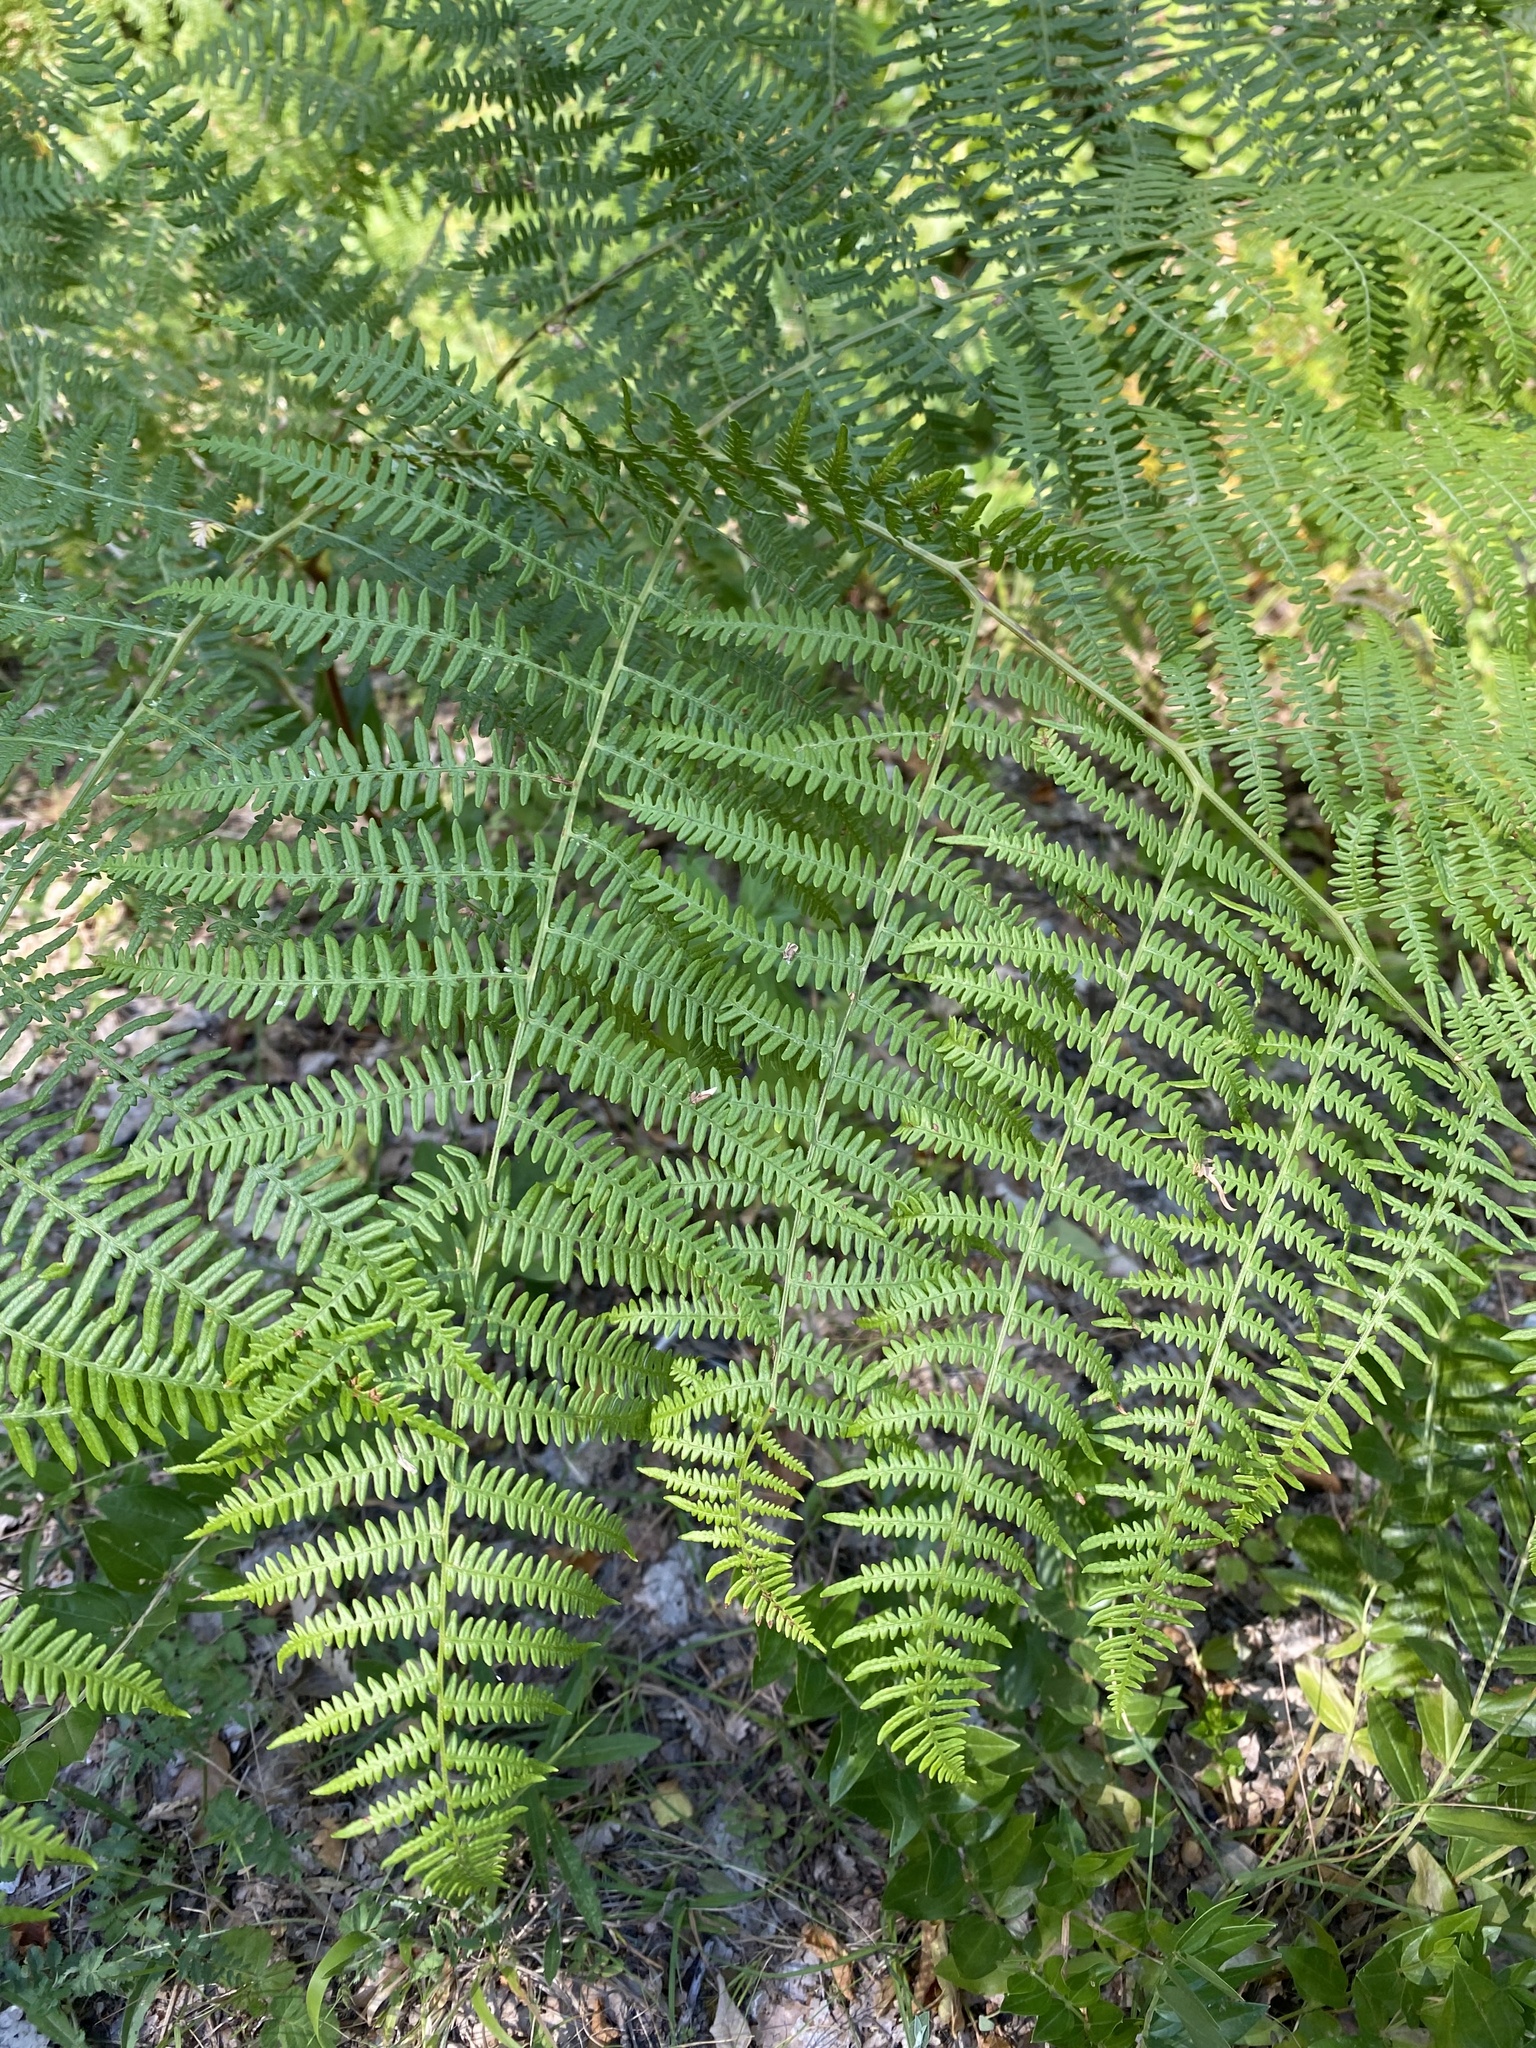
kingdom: Plantae
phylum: Tracheophyta
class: Polypodiopsida
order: Polypodiales
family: Dennstaedtiaceae
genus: Pteridium
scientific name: Pteridium aquilinum
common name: Bracken
